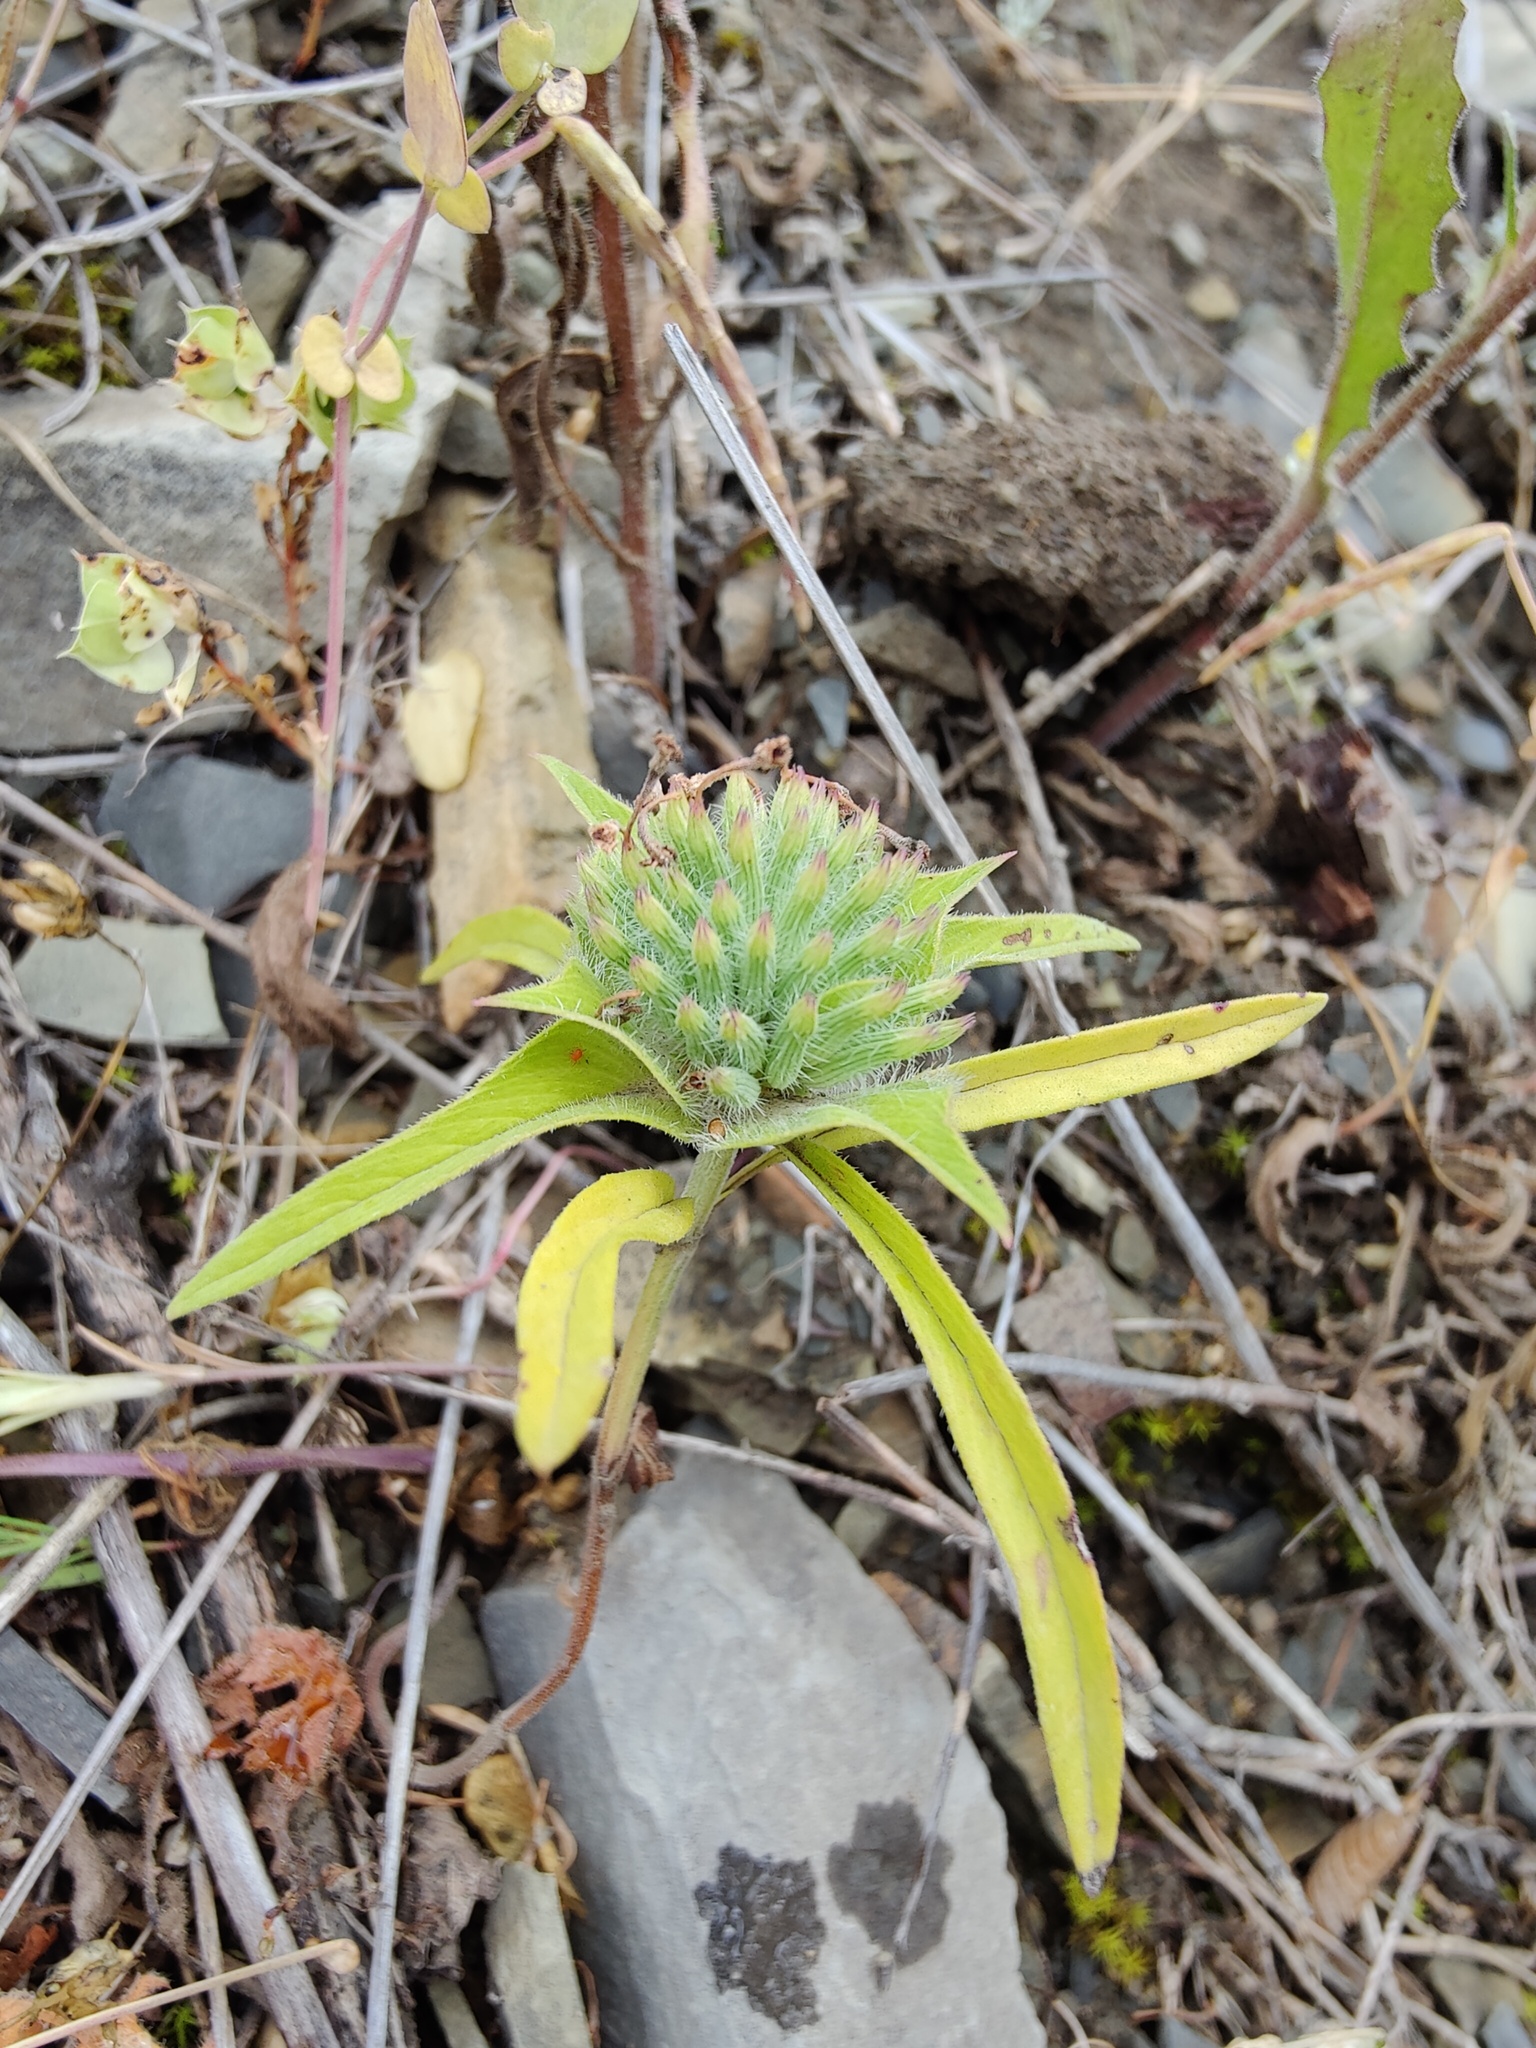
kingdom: Plantae
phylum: Tracheophyta
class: Magnoliopsida
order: Lamiales
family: Lamiaceae
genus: Ziziphora
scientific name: Ziziphora capitata
